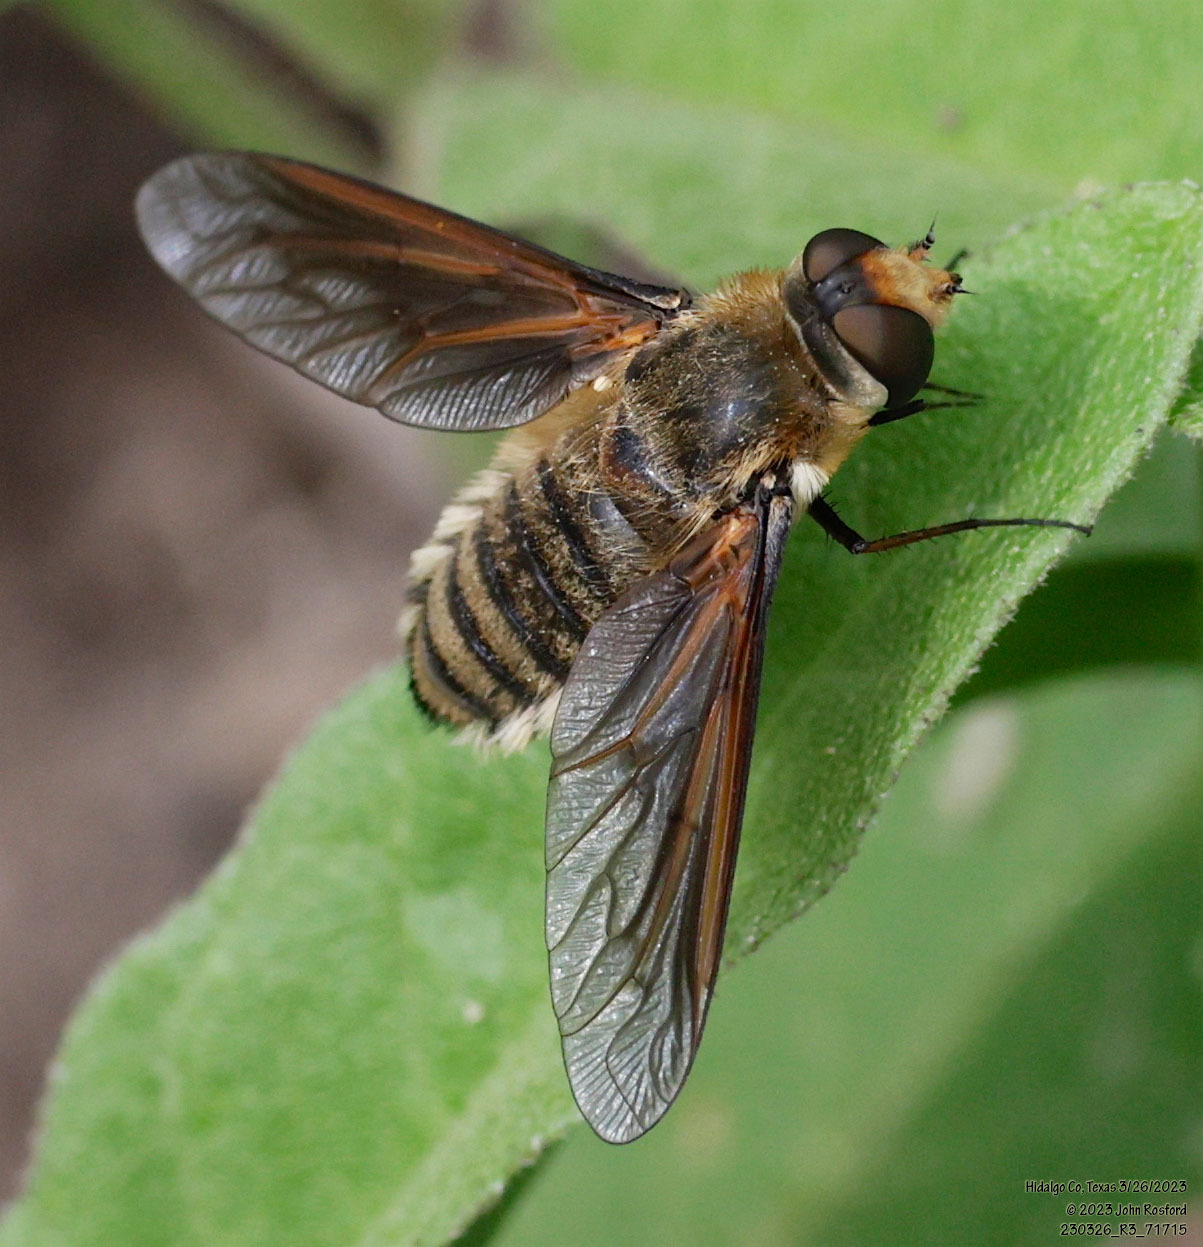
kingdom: Animalia
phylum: Arthropoda
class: Insecta
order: Diptera
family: Bombyliidae
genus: Poecilanthrax
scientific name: Poecilanthrax lucifer
